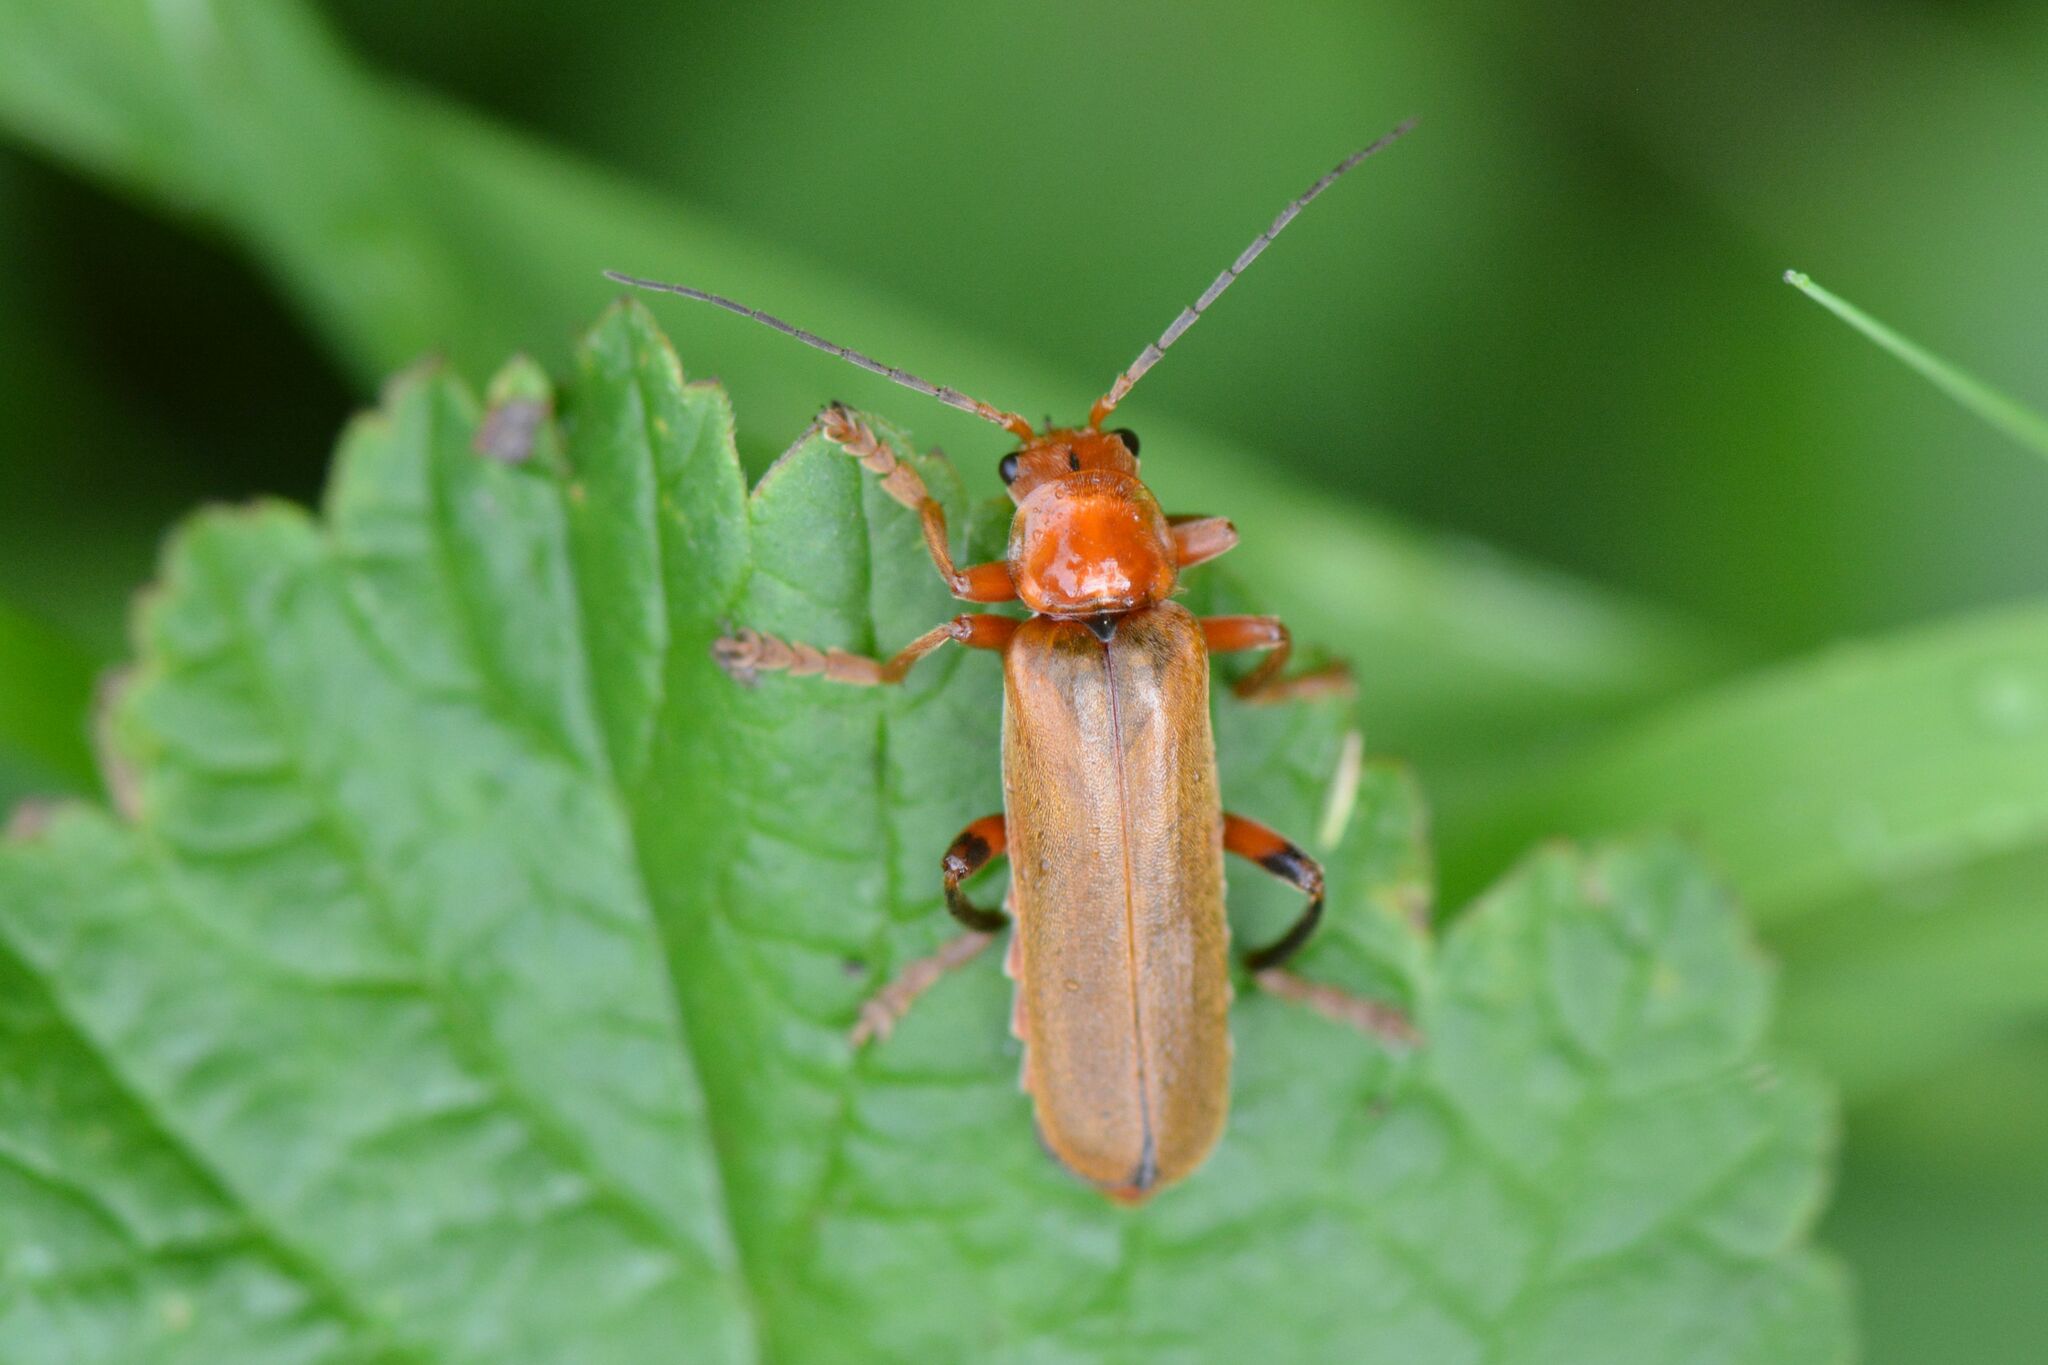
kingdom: Animalia
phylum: Arthropoda
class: Insecta
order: Coleoptera
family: Cantharidae
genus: Cantharis
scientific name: Cantharis livida
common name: Livid soldier beetle
